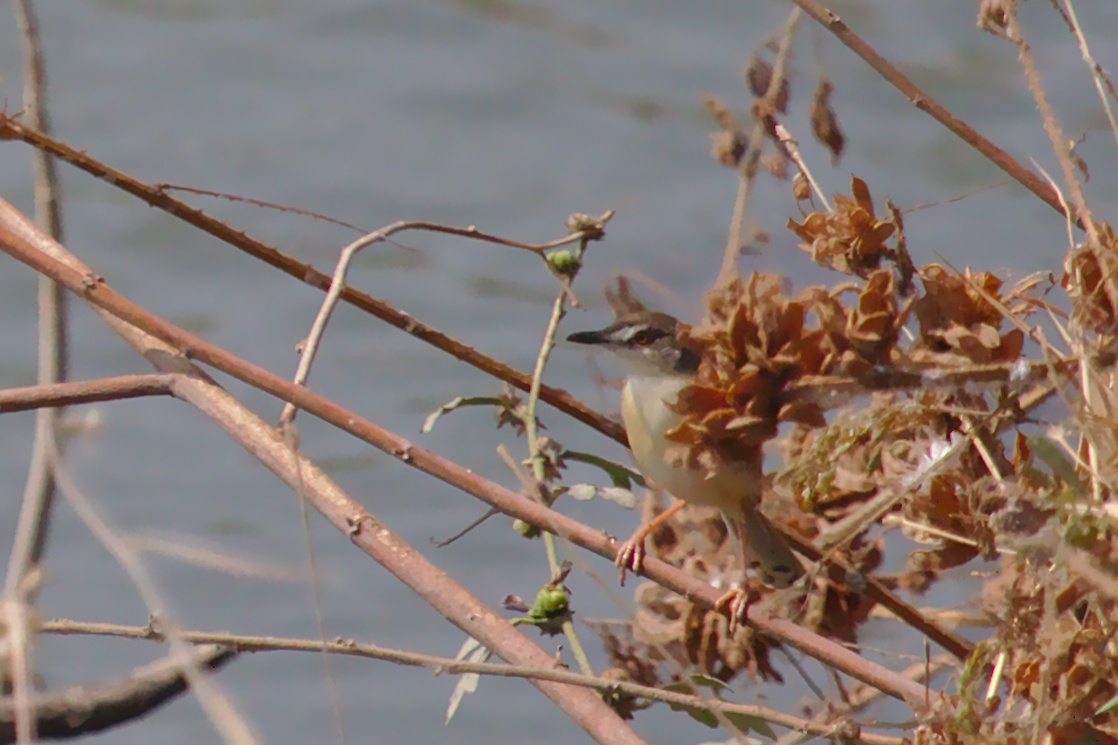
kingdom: Animalia
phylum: Chordata
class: Aves
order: Passeriformes
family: Cisticolidae
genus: Prinia
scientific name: Prinia inornata
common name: Plain prinia
